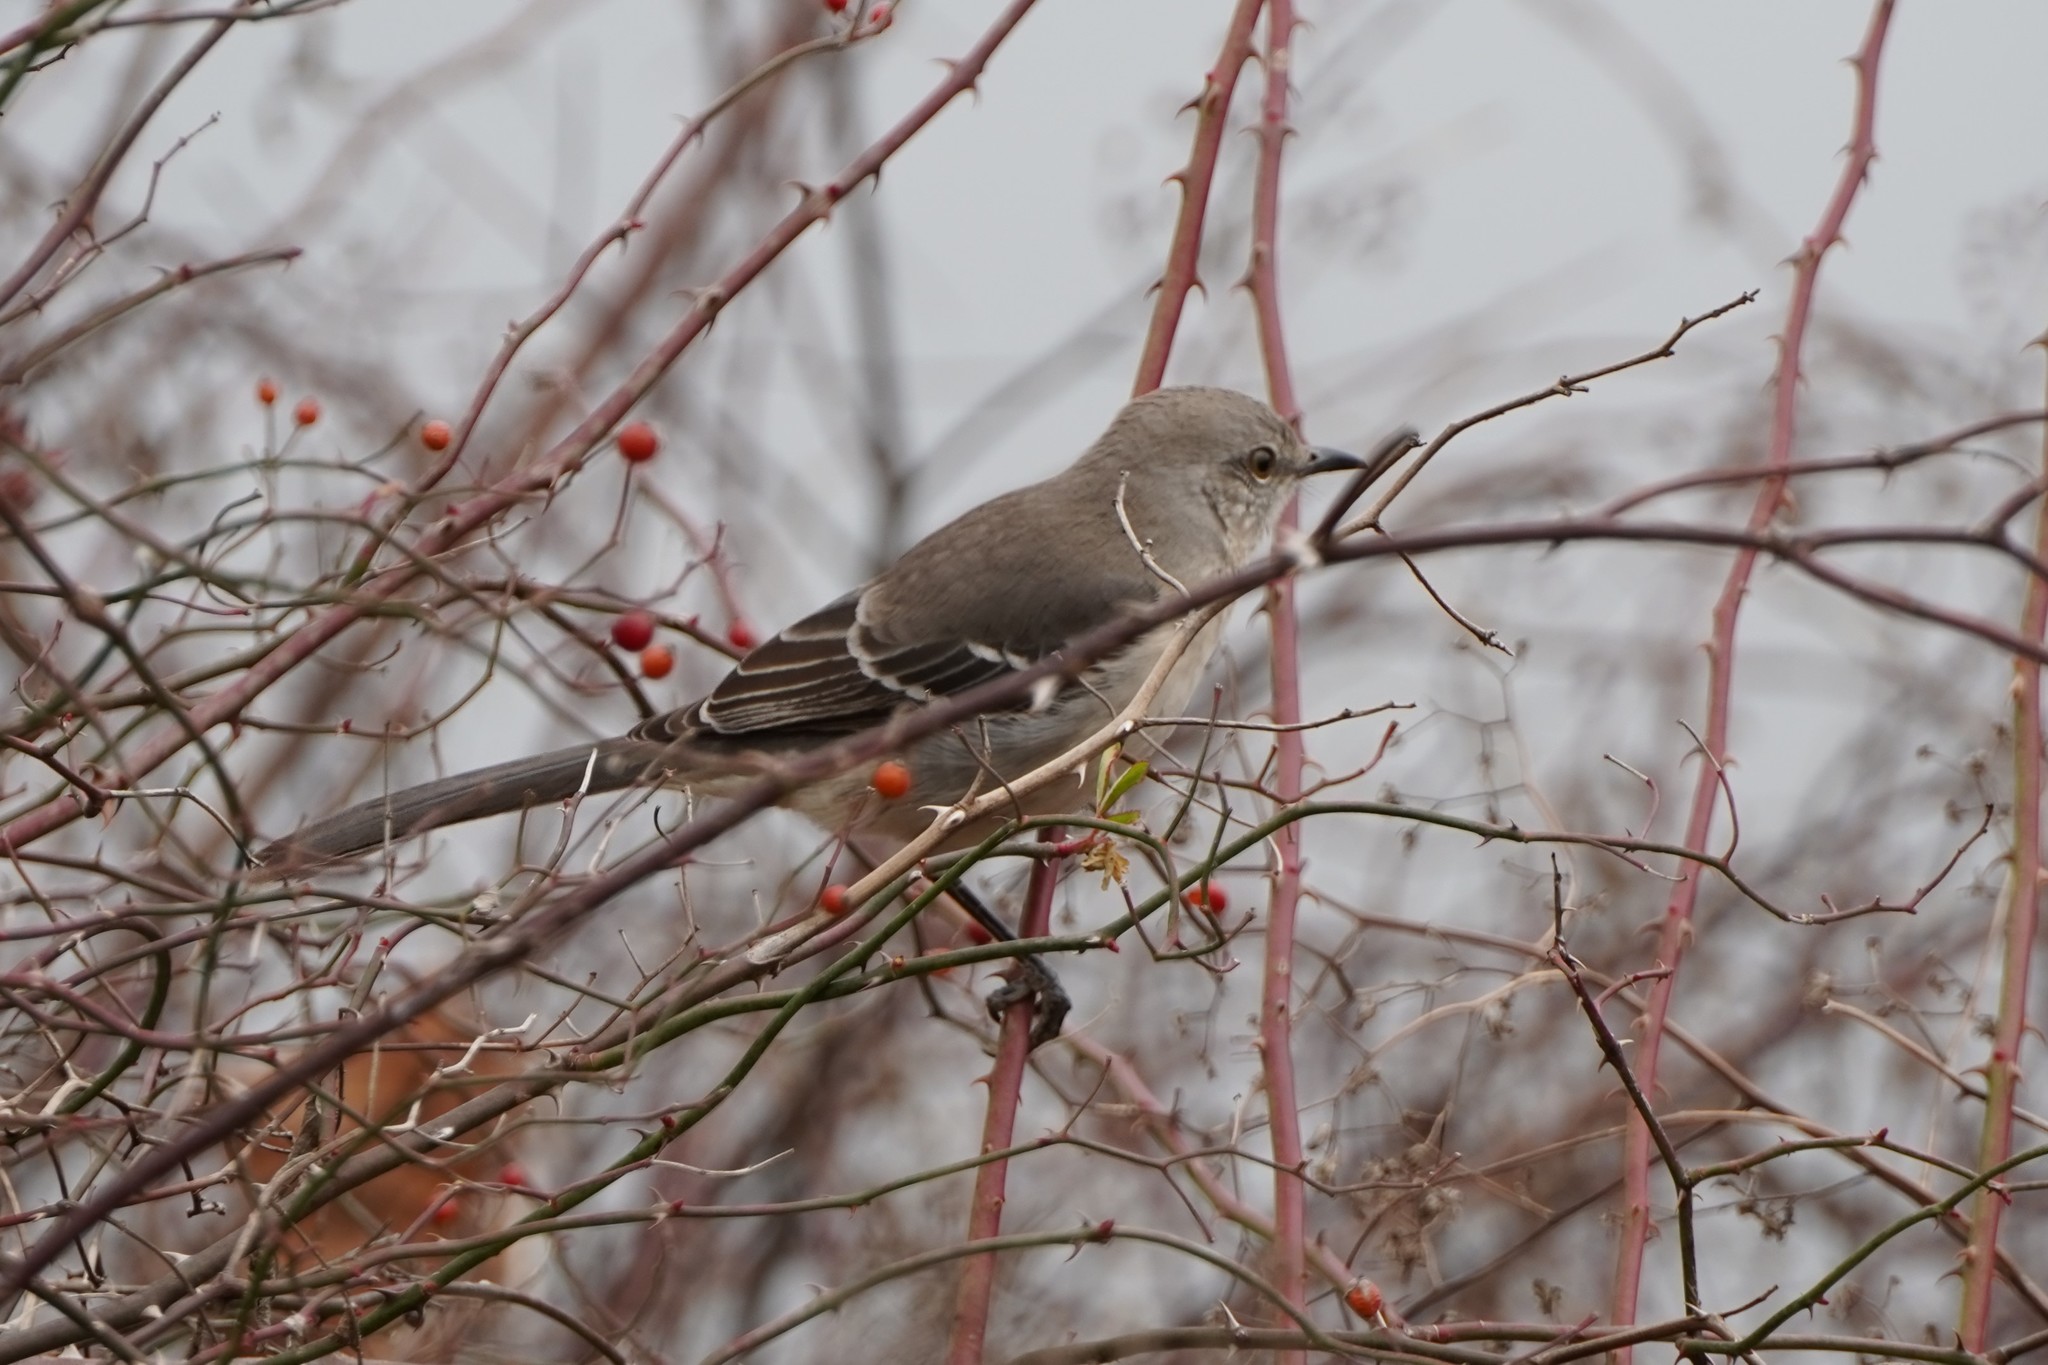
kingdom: Animalia
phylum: Chordata
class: Aves
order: Passeriformes
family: Mimidae
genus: Mimus
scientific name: Mimus polyglottos
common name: Northern mockingbird
